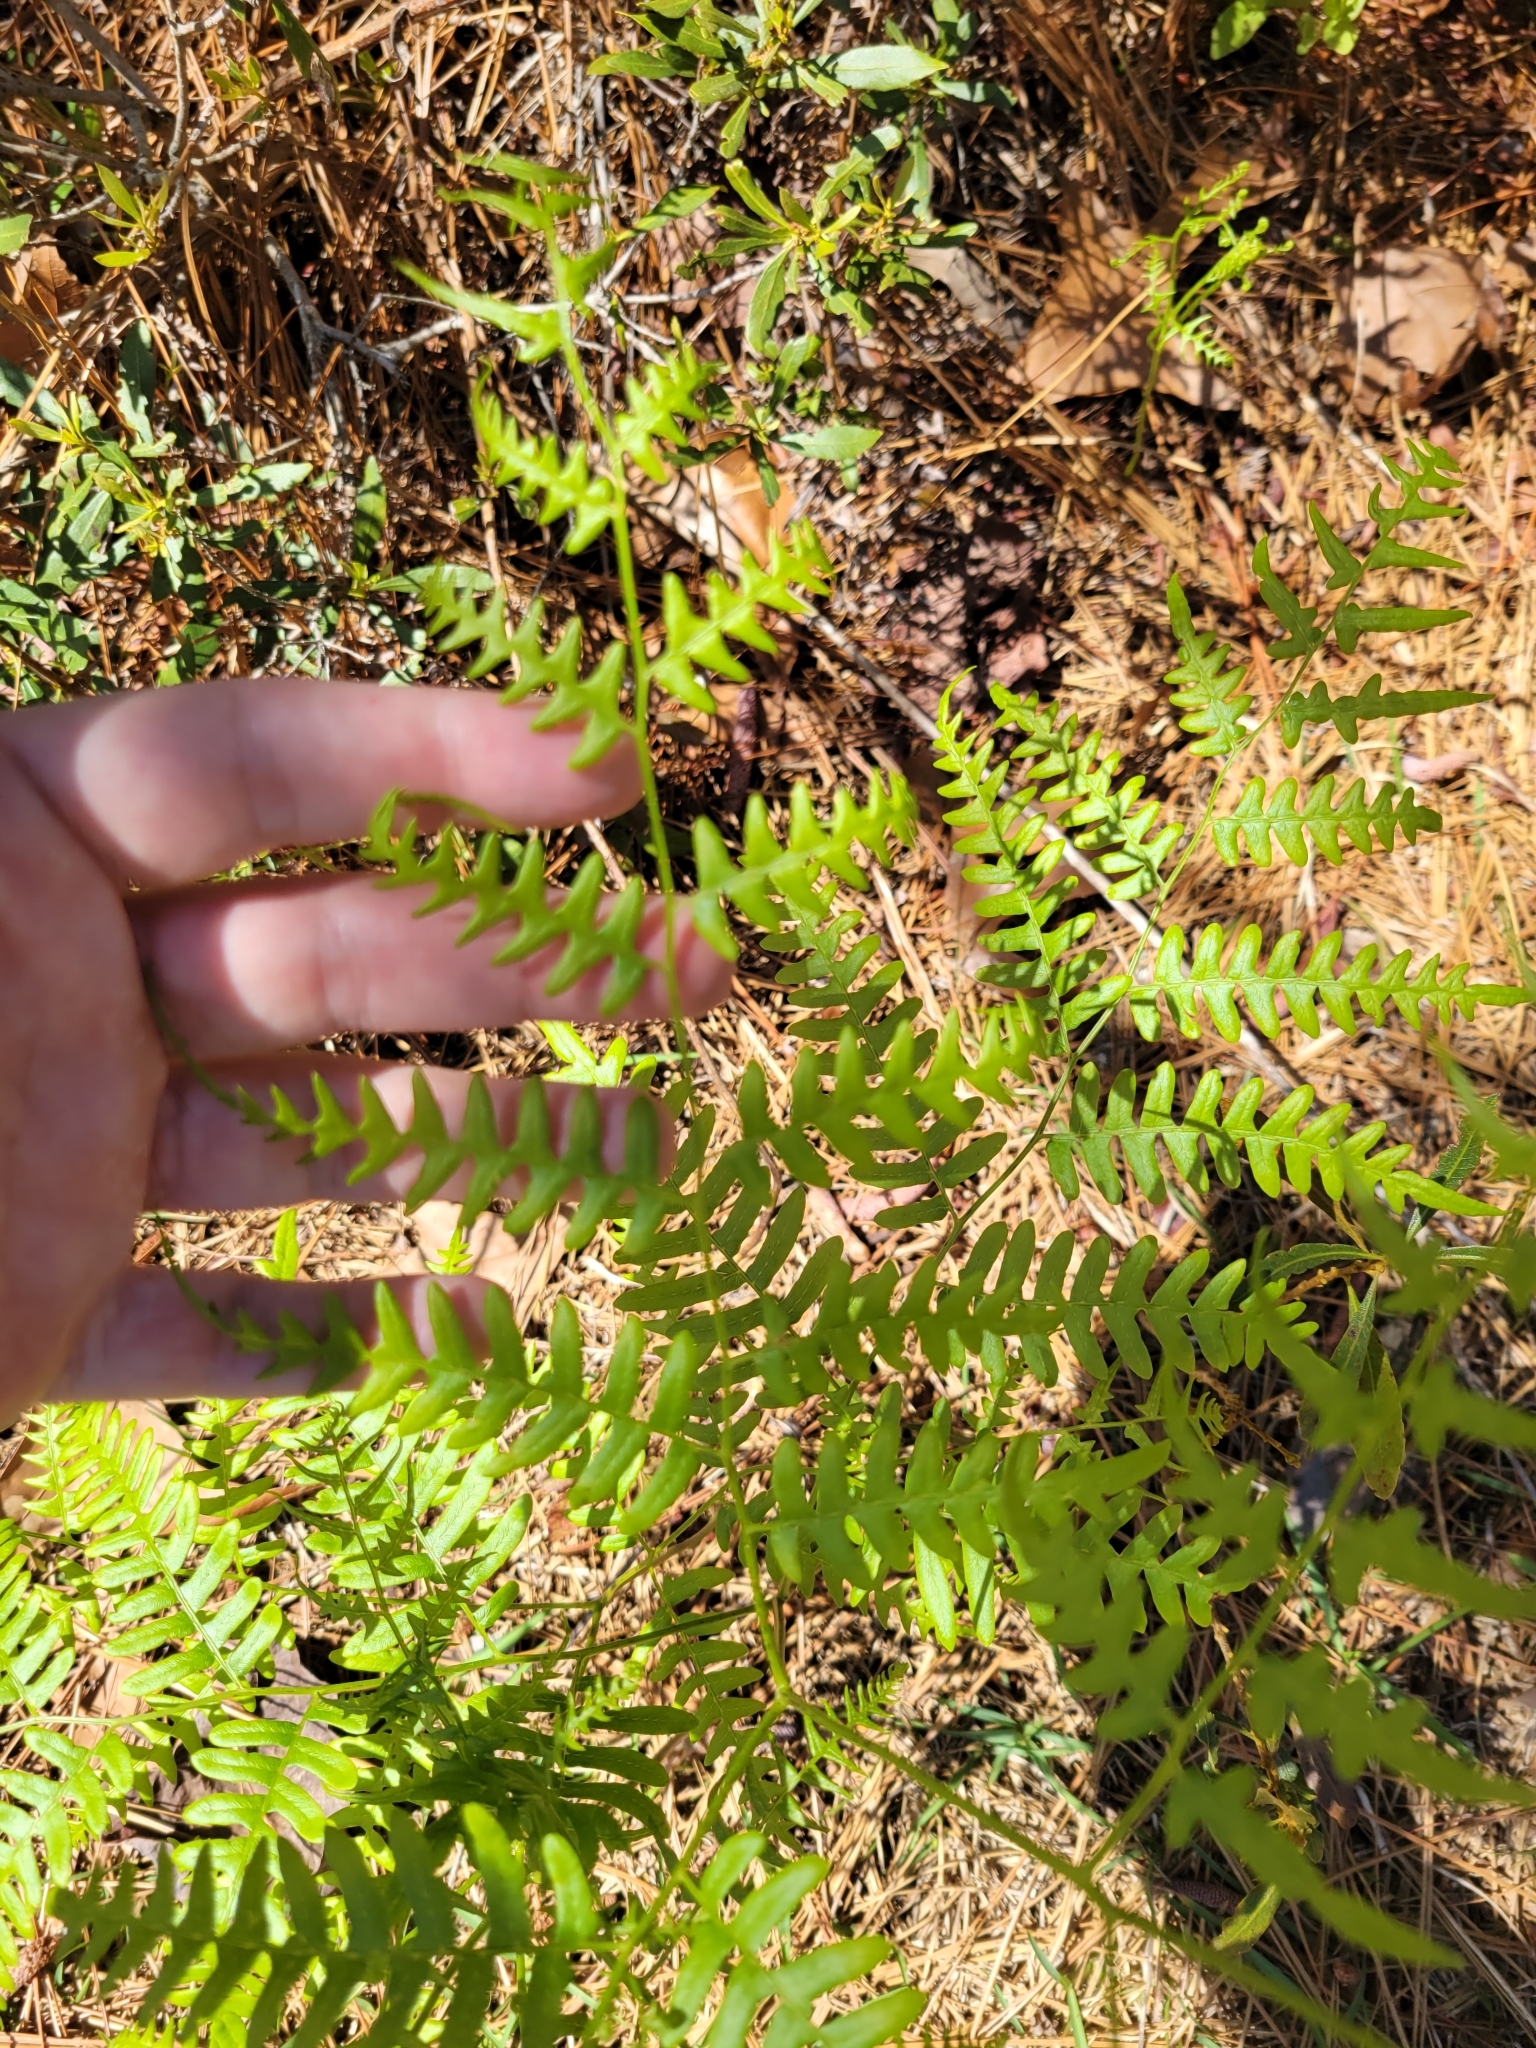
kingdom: Plantae
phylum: Tracheophyta
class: Polypodiopsida
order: Polypodiales
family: Dennstaedtiaceae
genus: Pteridium
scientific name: Pteridium aquilinum
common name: Bracken
